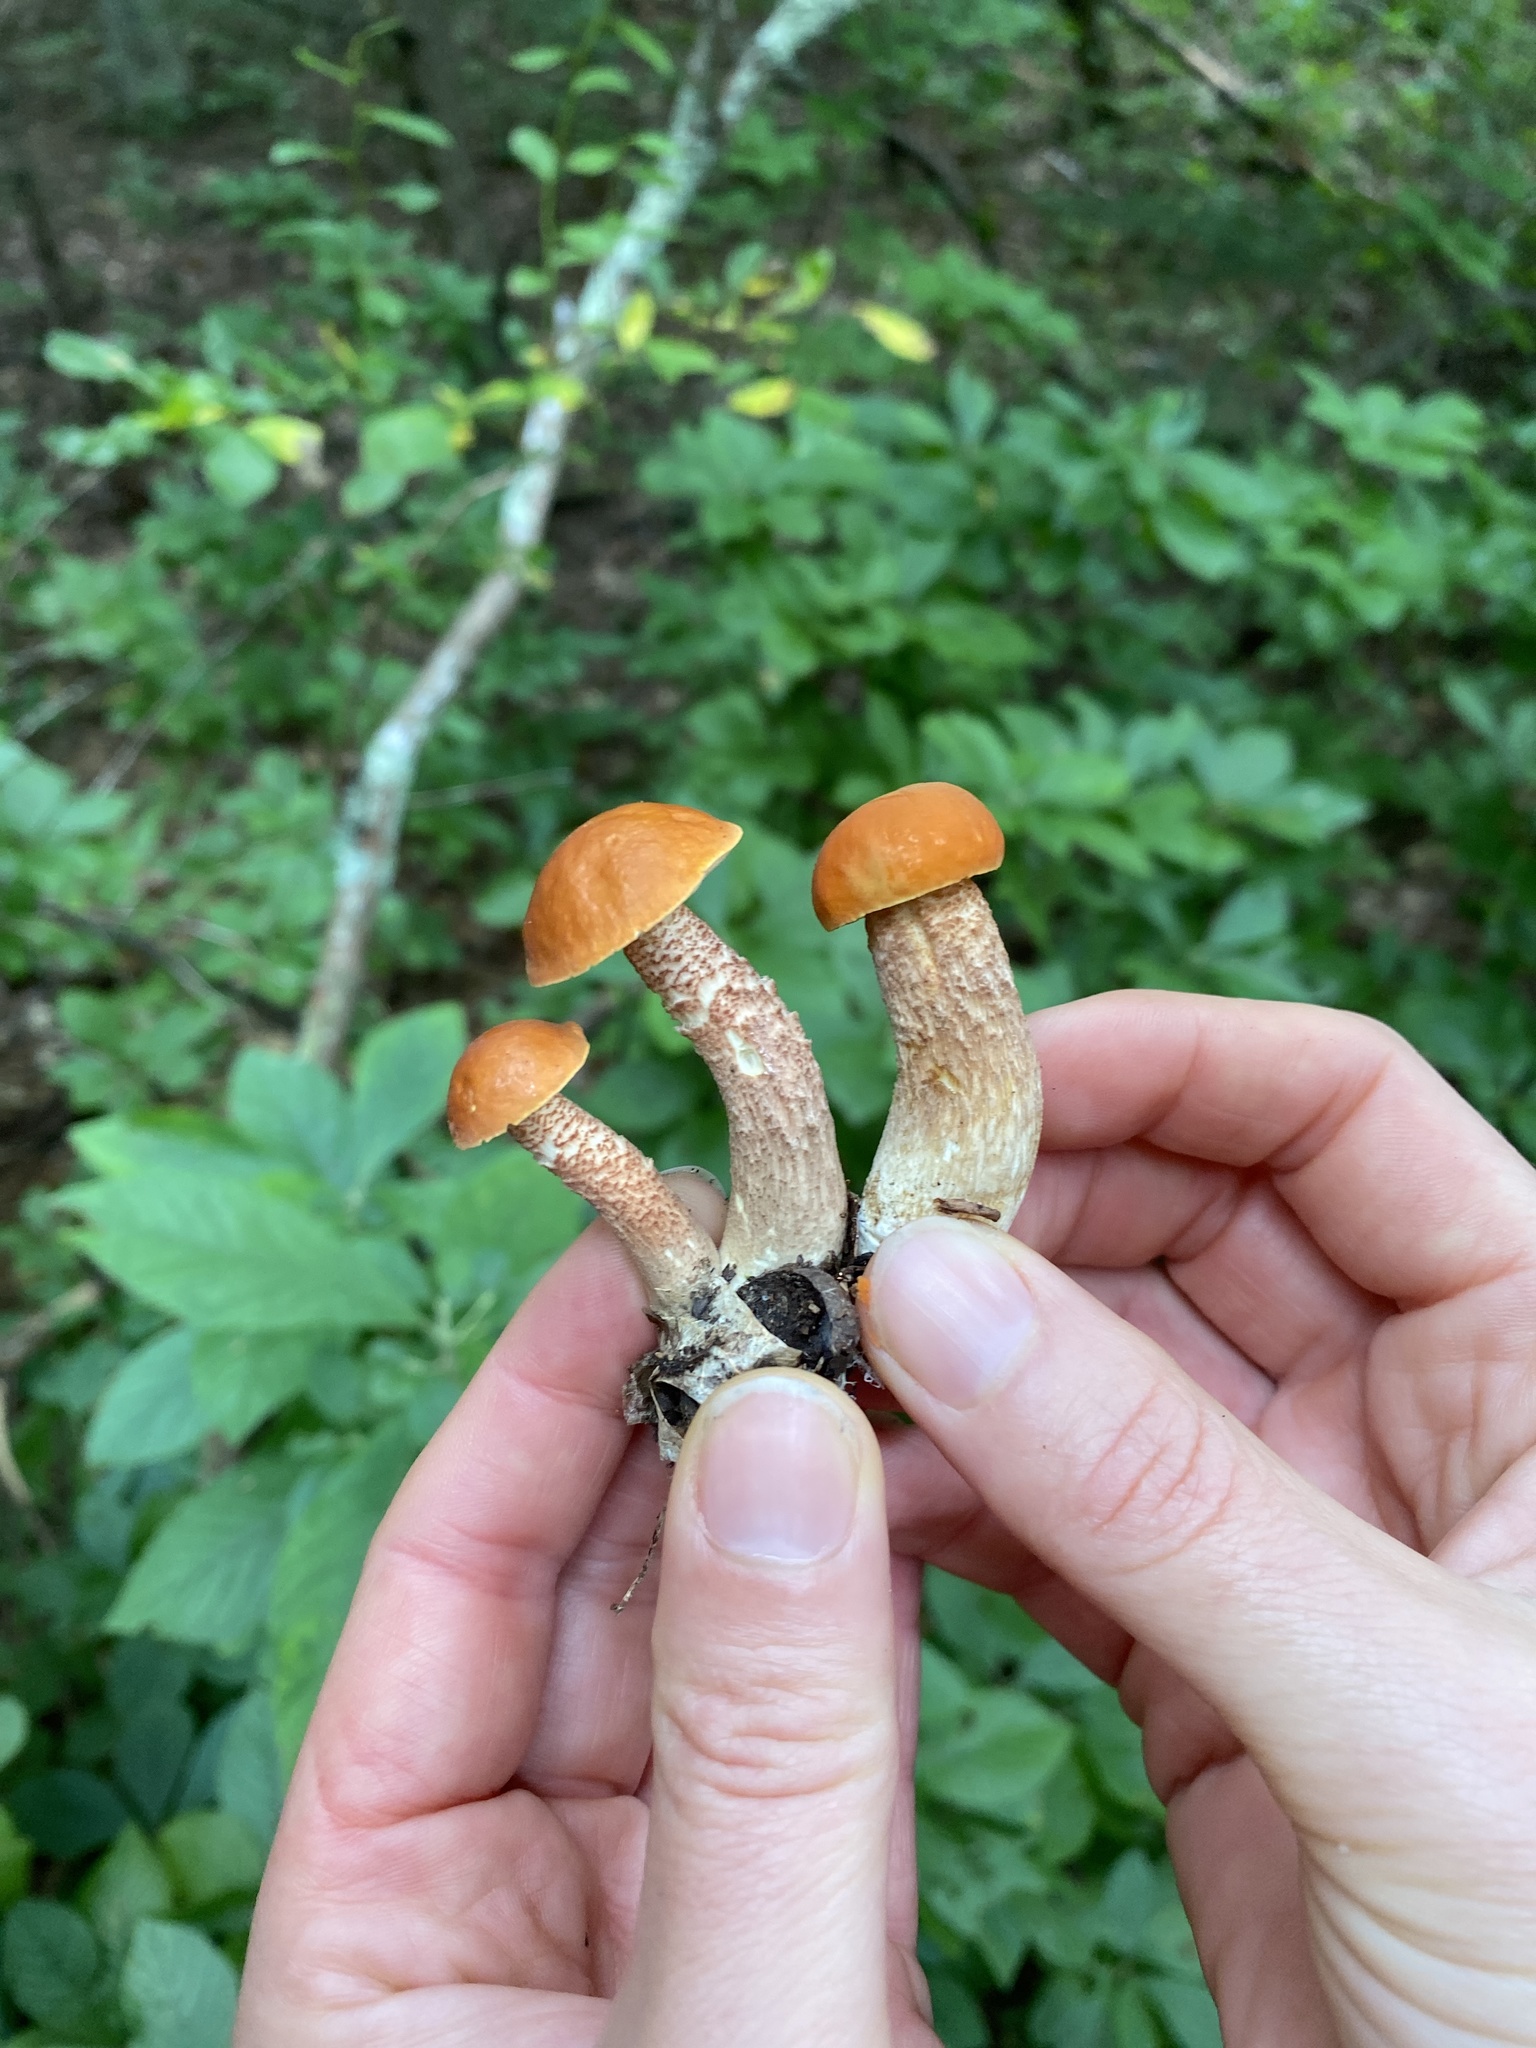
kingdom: Fungi
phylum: Basidiomycota
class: Agaricomycetes
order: Boletales
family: Boletaceae
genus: Leccinum
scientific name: Leccinum aurantiacum
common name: Orange bolete
